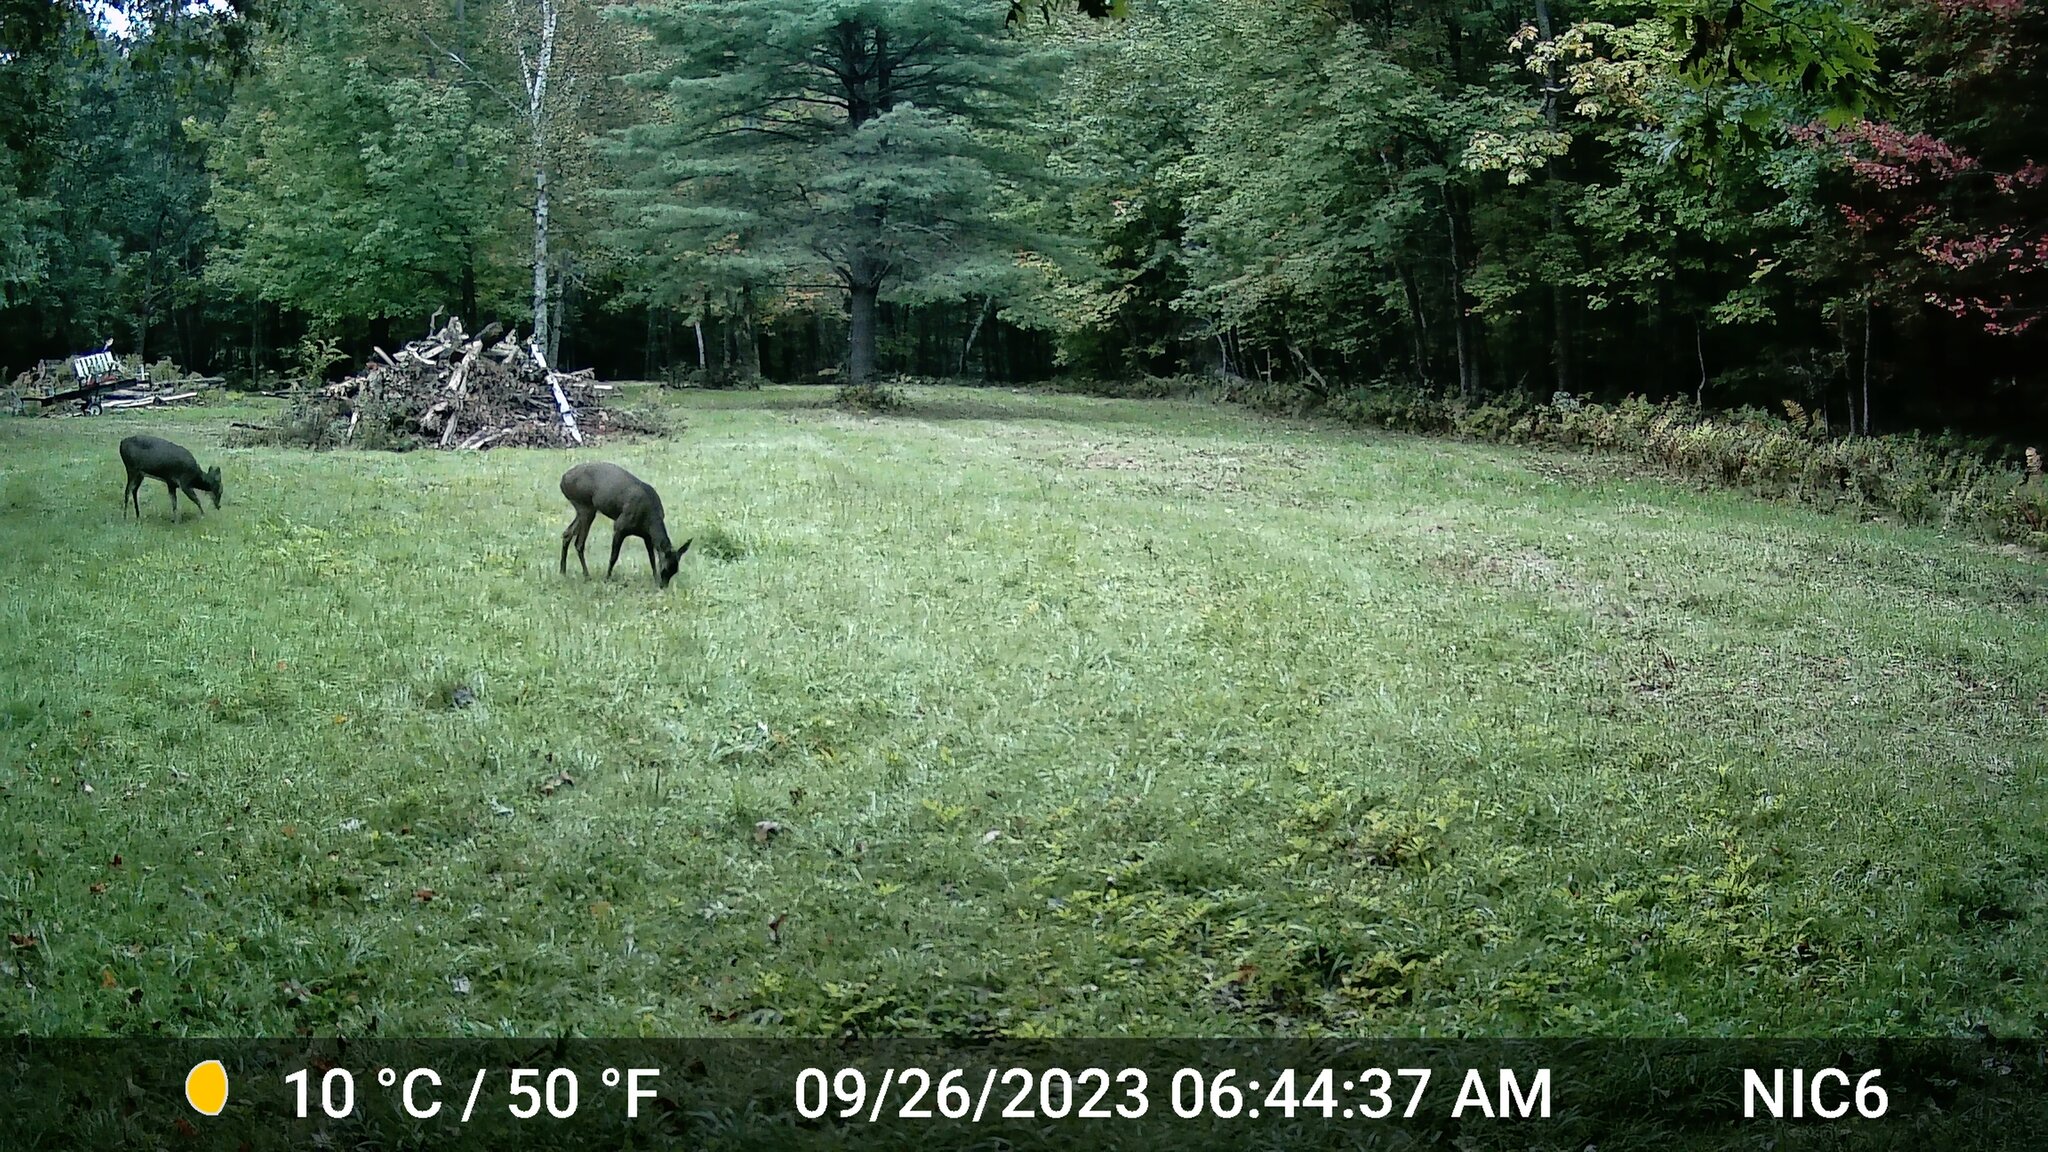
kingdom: Animalia
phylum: Chordata
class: Mammalia
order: Artiodactyla
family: Cervidae
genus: Odocoileus
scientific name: Odocoileus virginianus
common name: White-tailed deer
